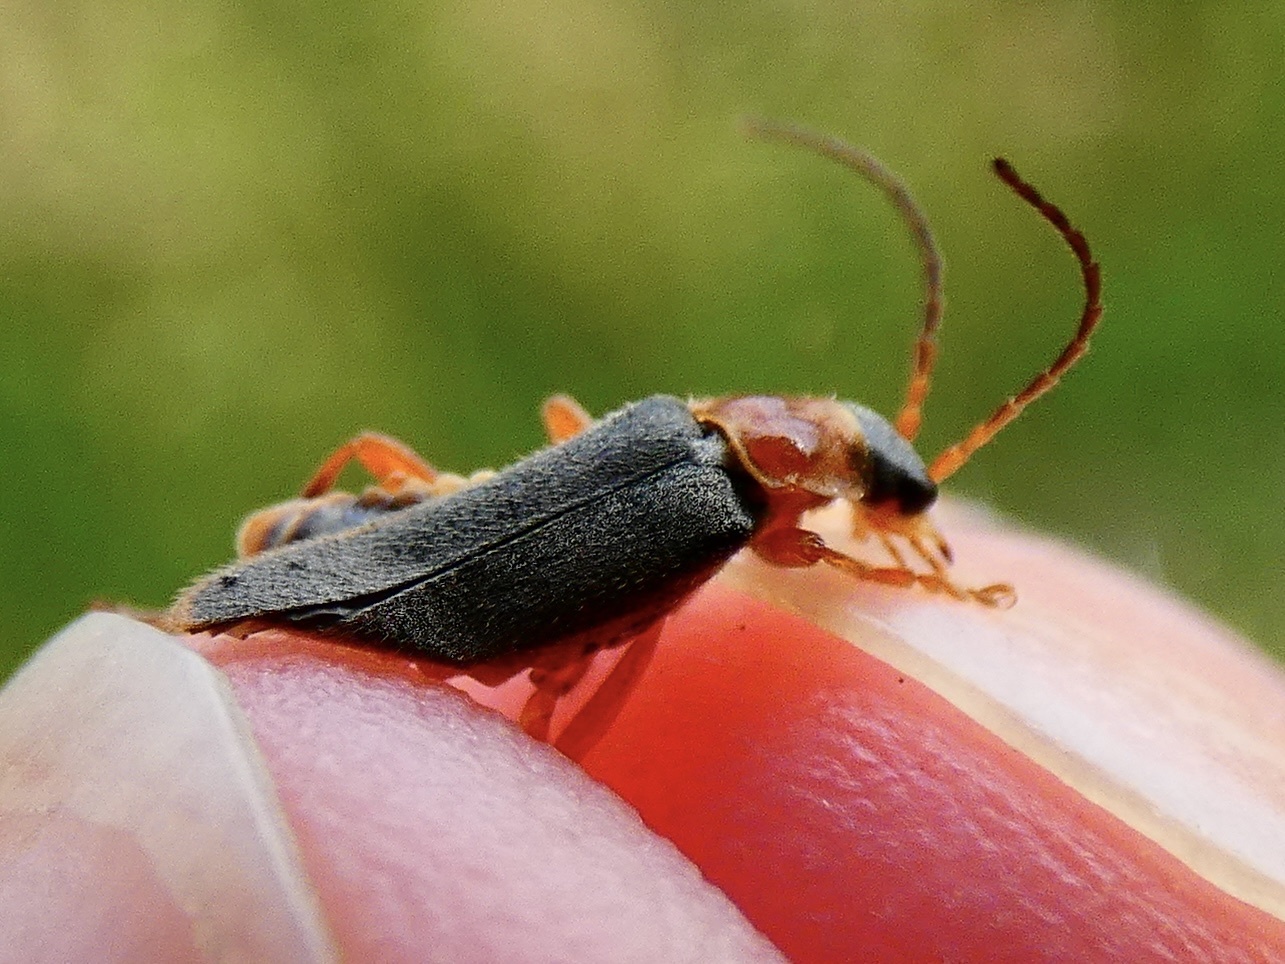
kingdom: Animalia
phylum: Arthropoda
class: Insecta
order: Coleoptera
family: Cantharidae
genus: Cantharis
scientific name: Cantharis lateralis
